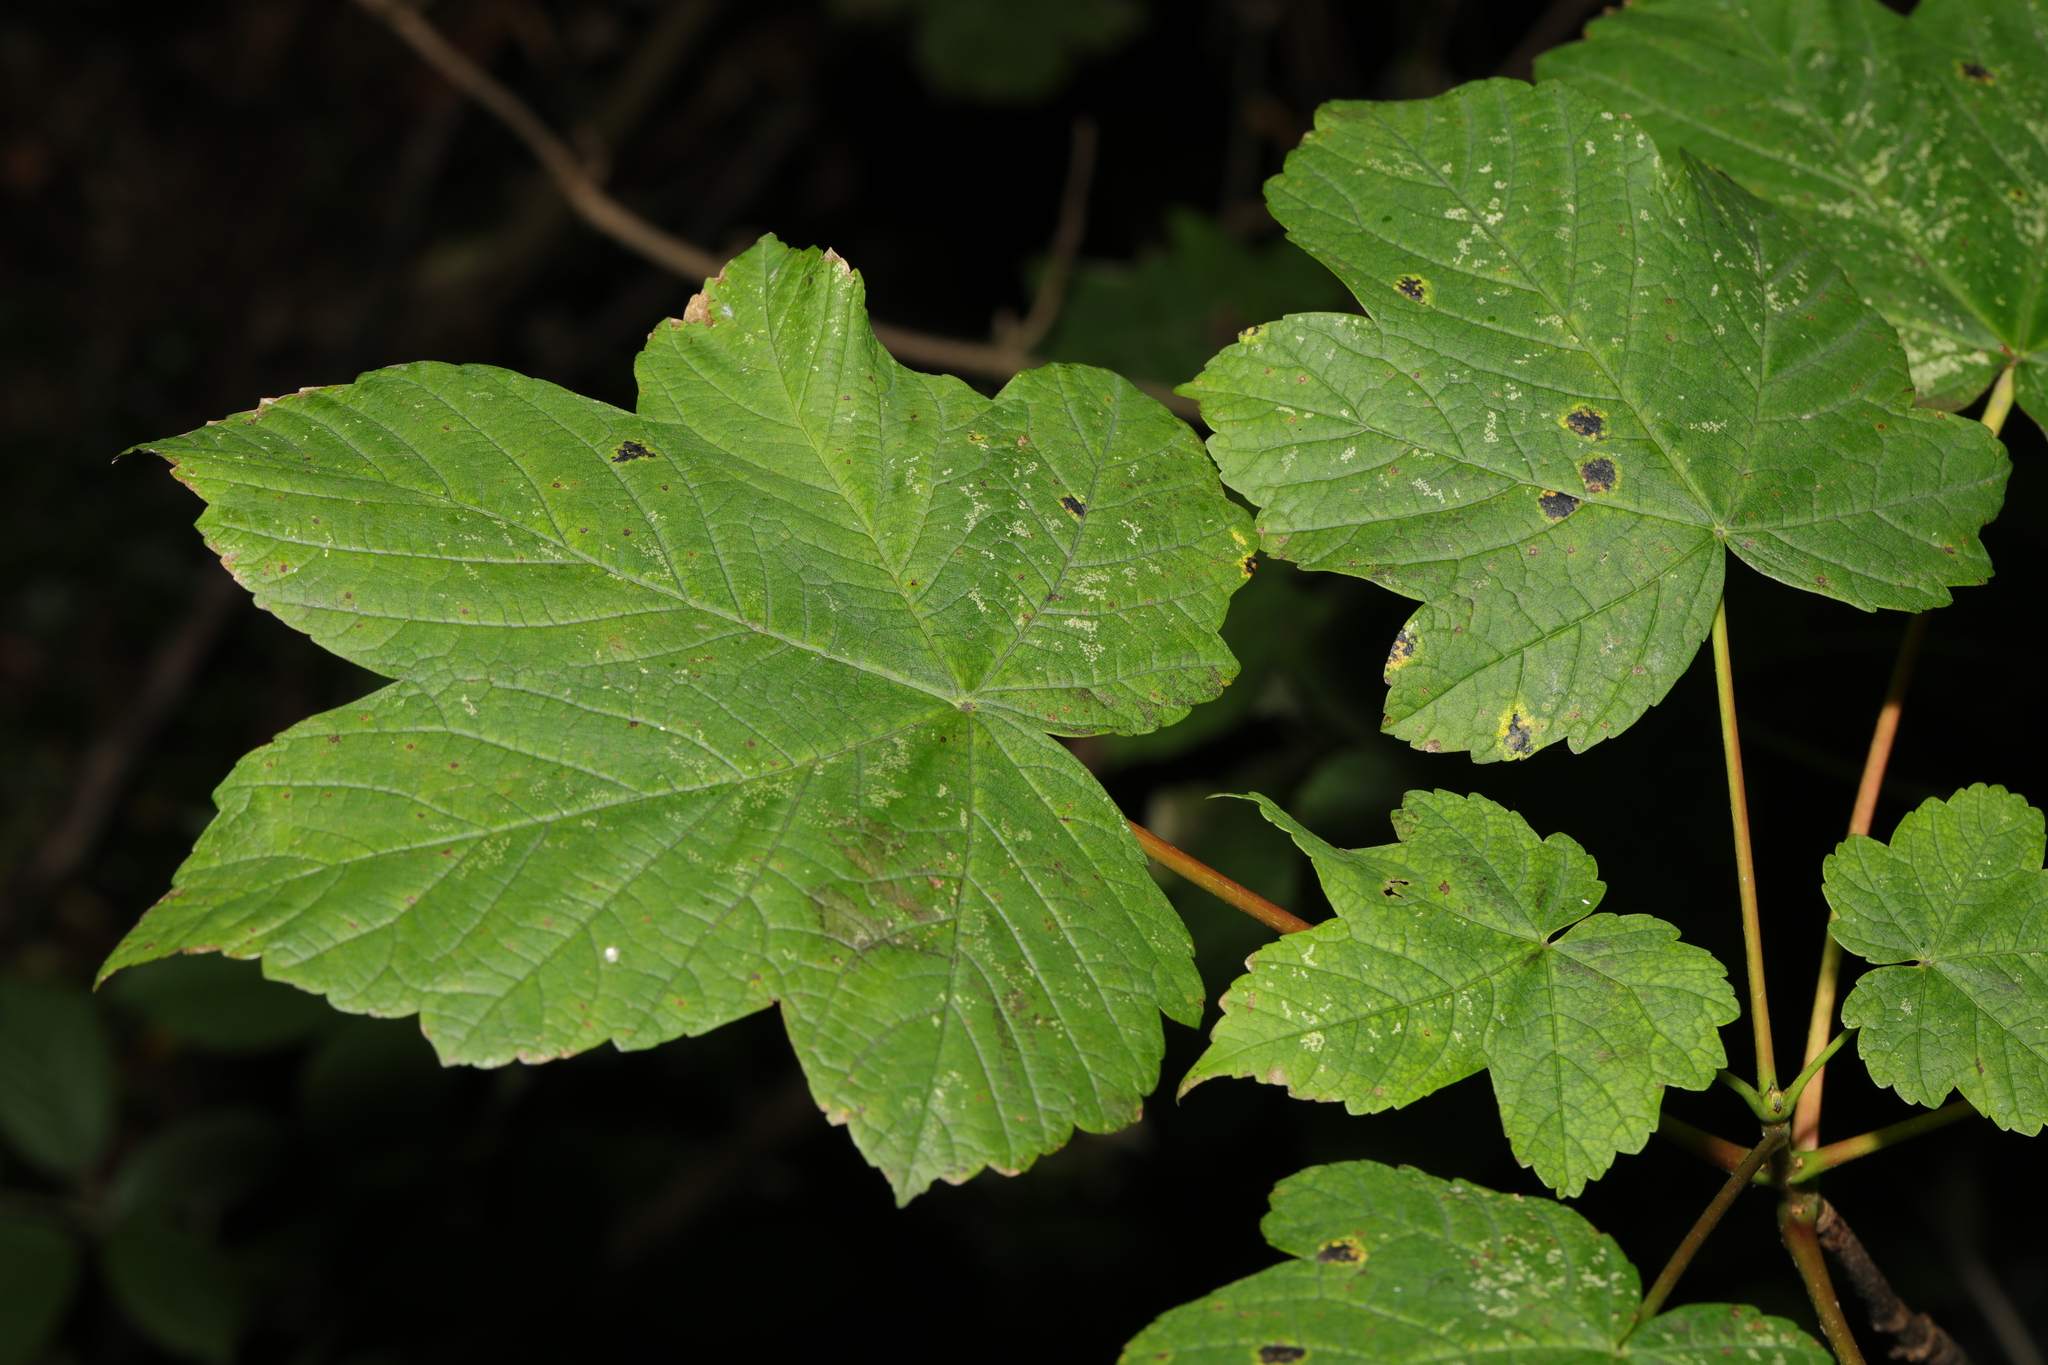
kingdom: Plantae
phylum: Tracheophyta
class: Magnoliopsida
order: Sapindales
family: Sapindaceae
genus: Acer
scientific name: Acer pseudoplatanus
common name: Sycamore
